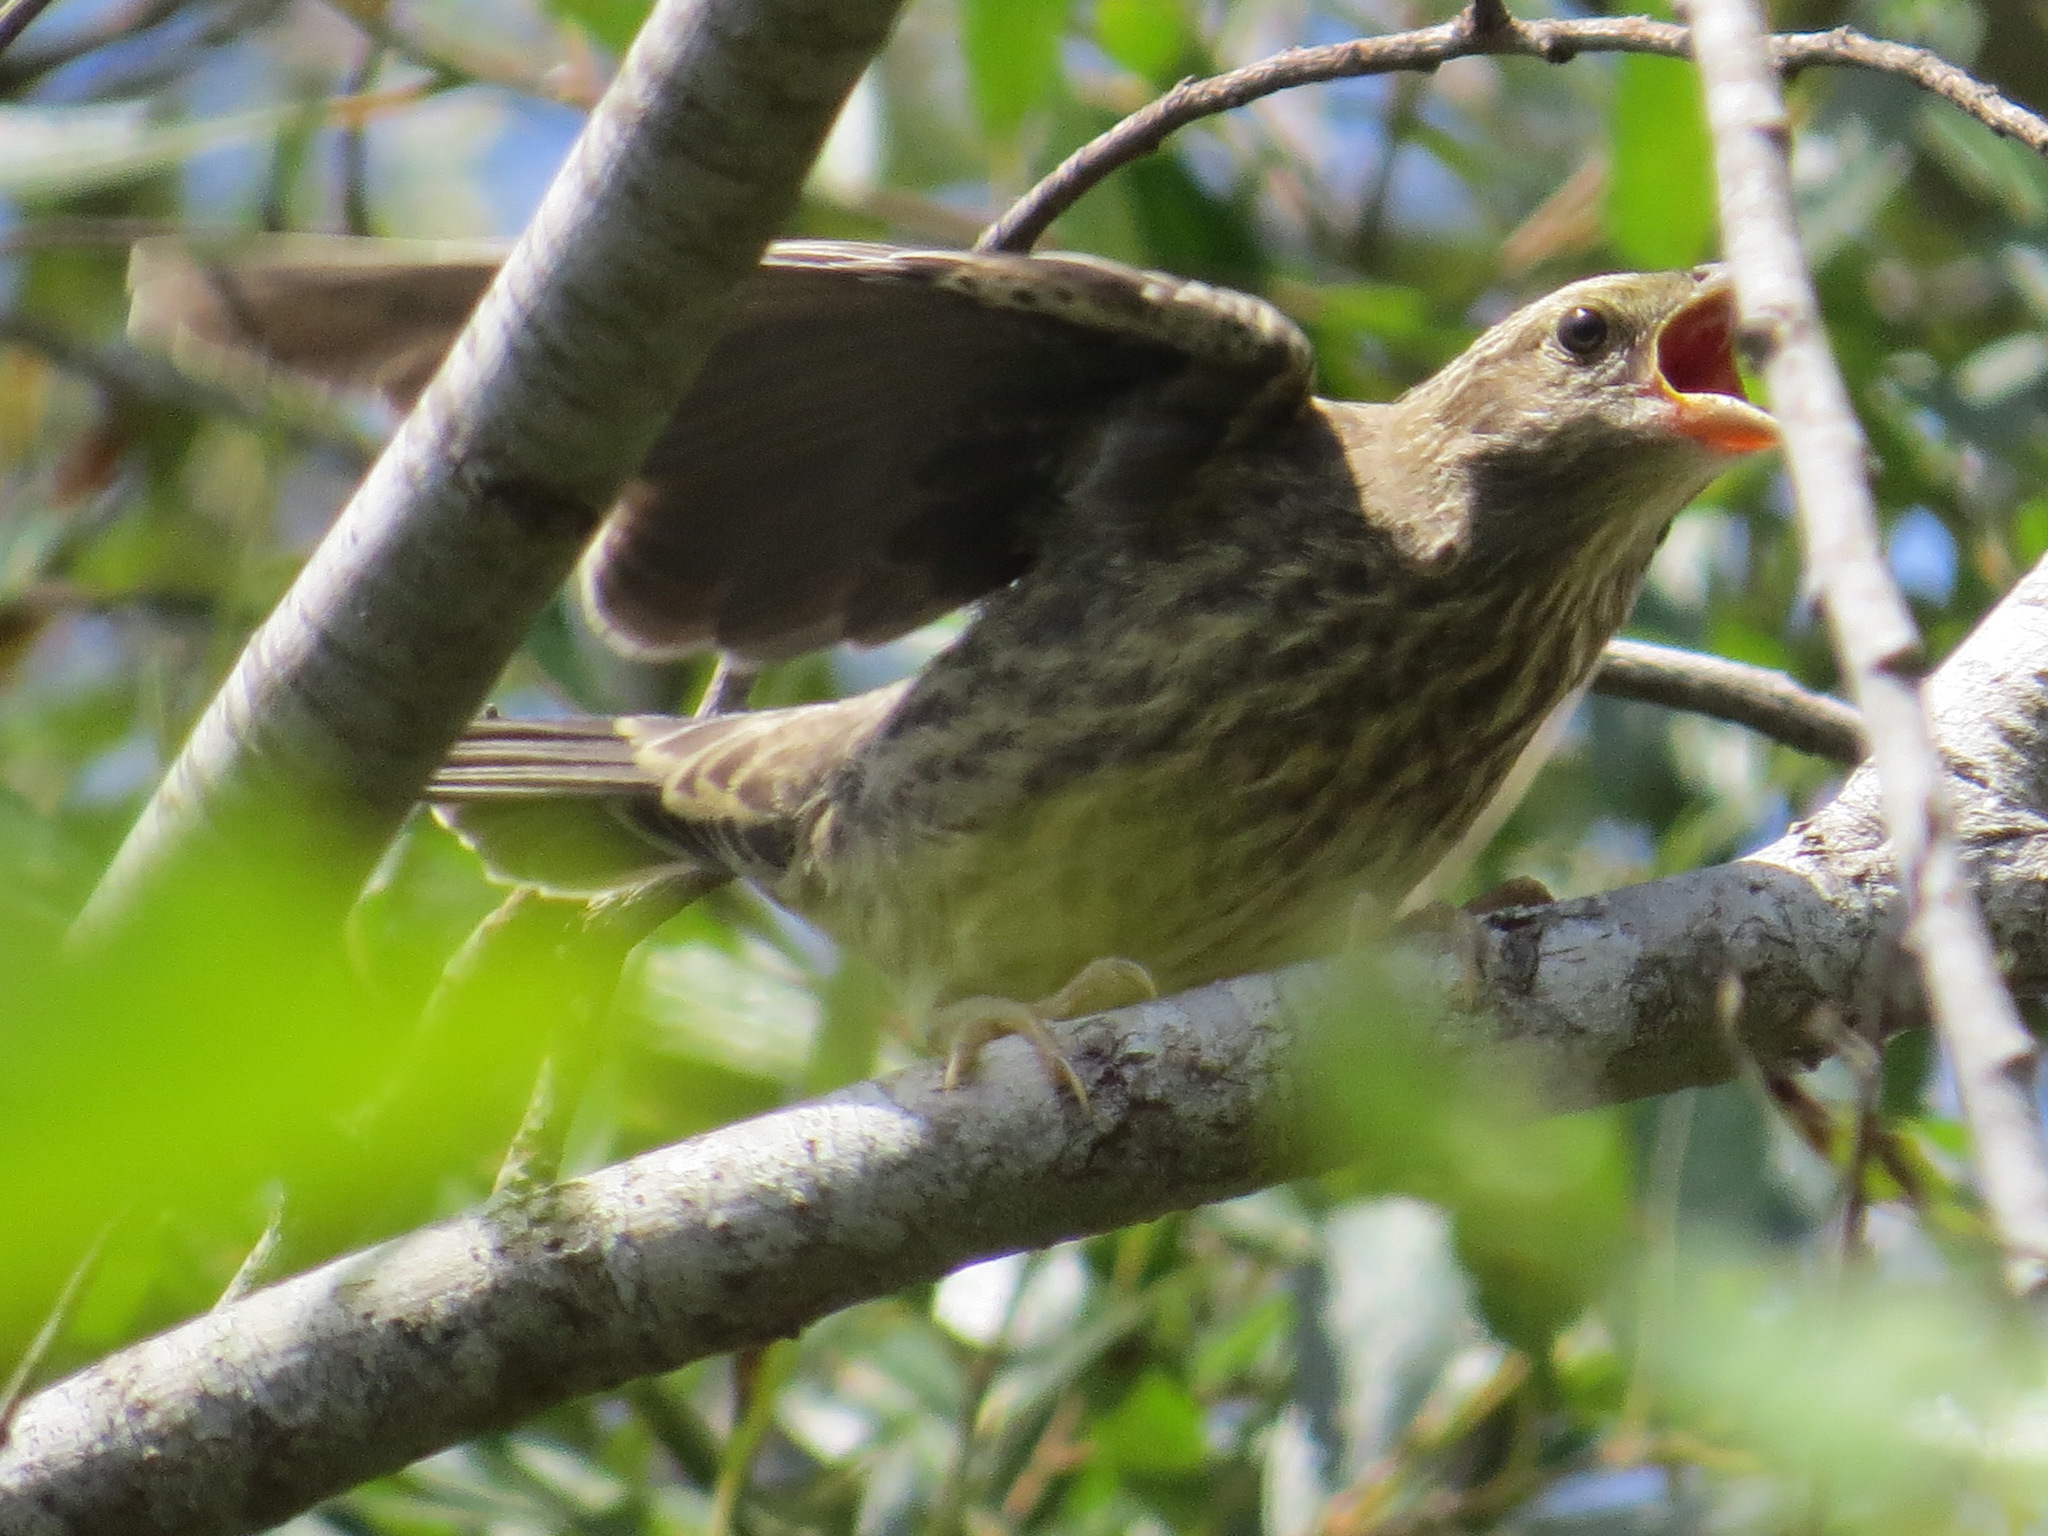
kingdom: Animalia
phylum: Chordata
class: Aves
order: Passeriformes
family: Icteridae
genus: Molothrus
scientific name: Molothrus ater
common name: Brown-headed cowbird
